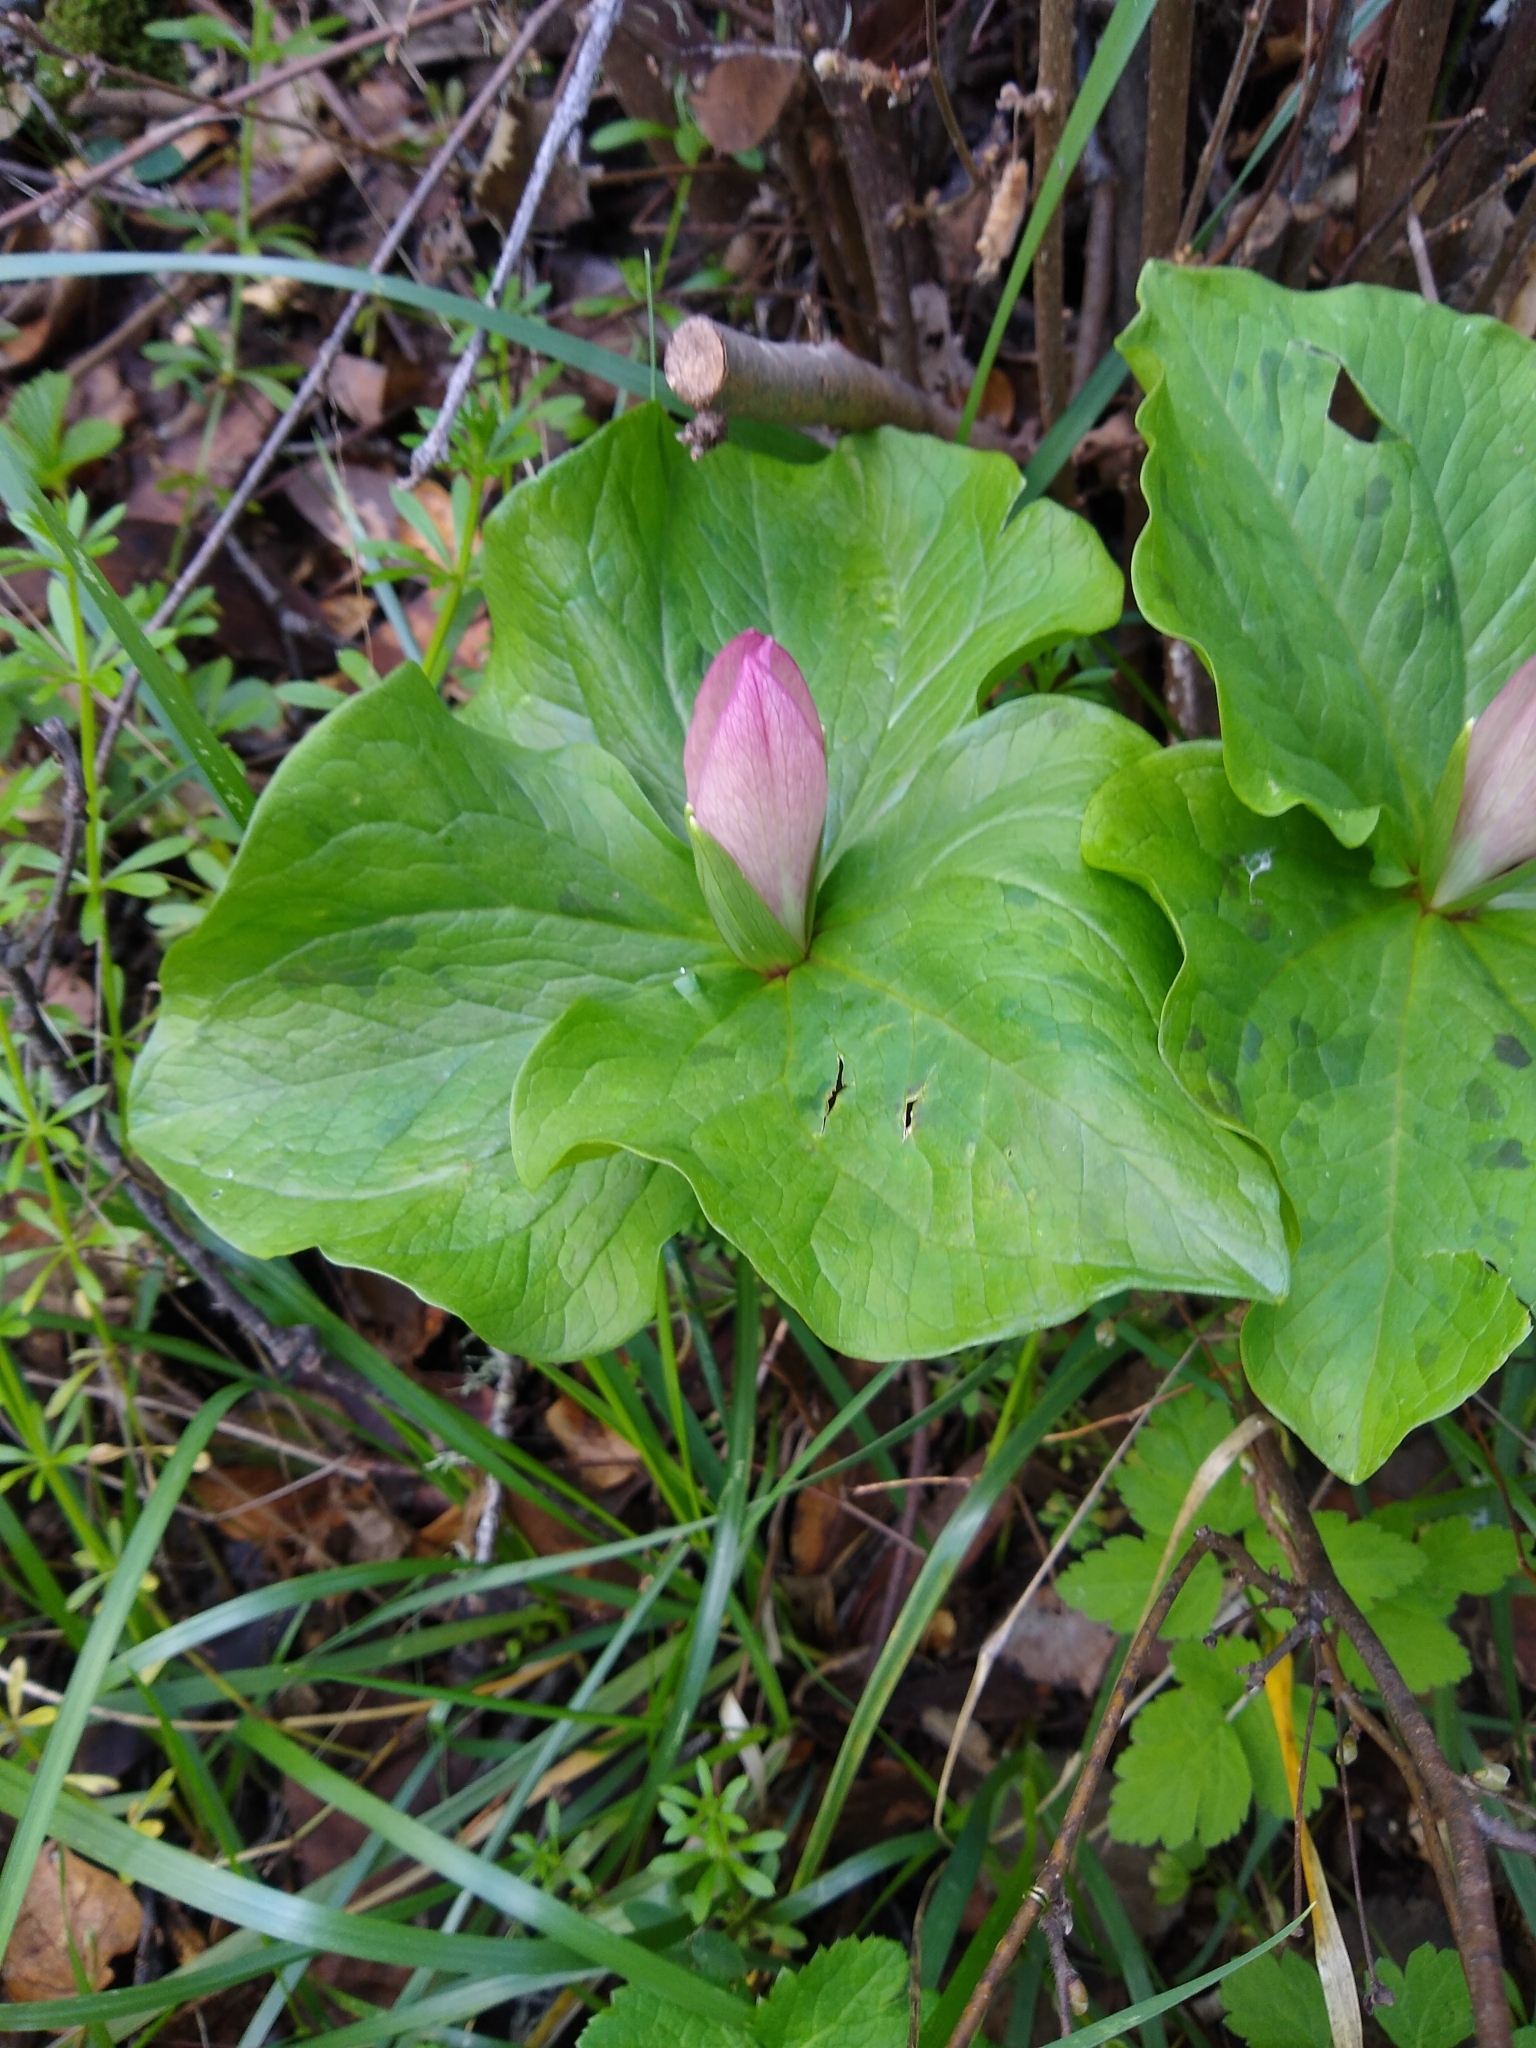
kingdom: Plantae
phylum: Tracheophyta
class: Liliopsida
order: Liliales
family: Melanthiaceae
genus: Trillium
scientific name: Trillium chloropetalum
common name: Giant trillium
